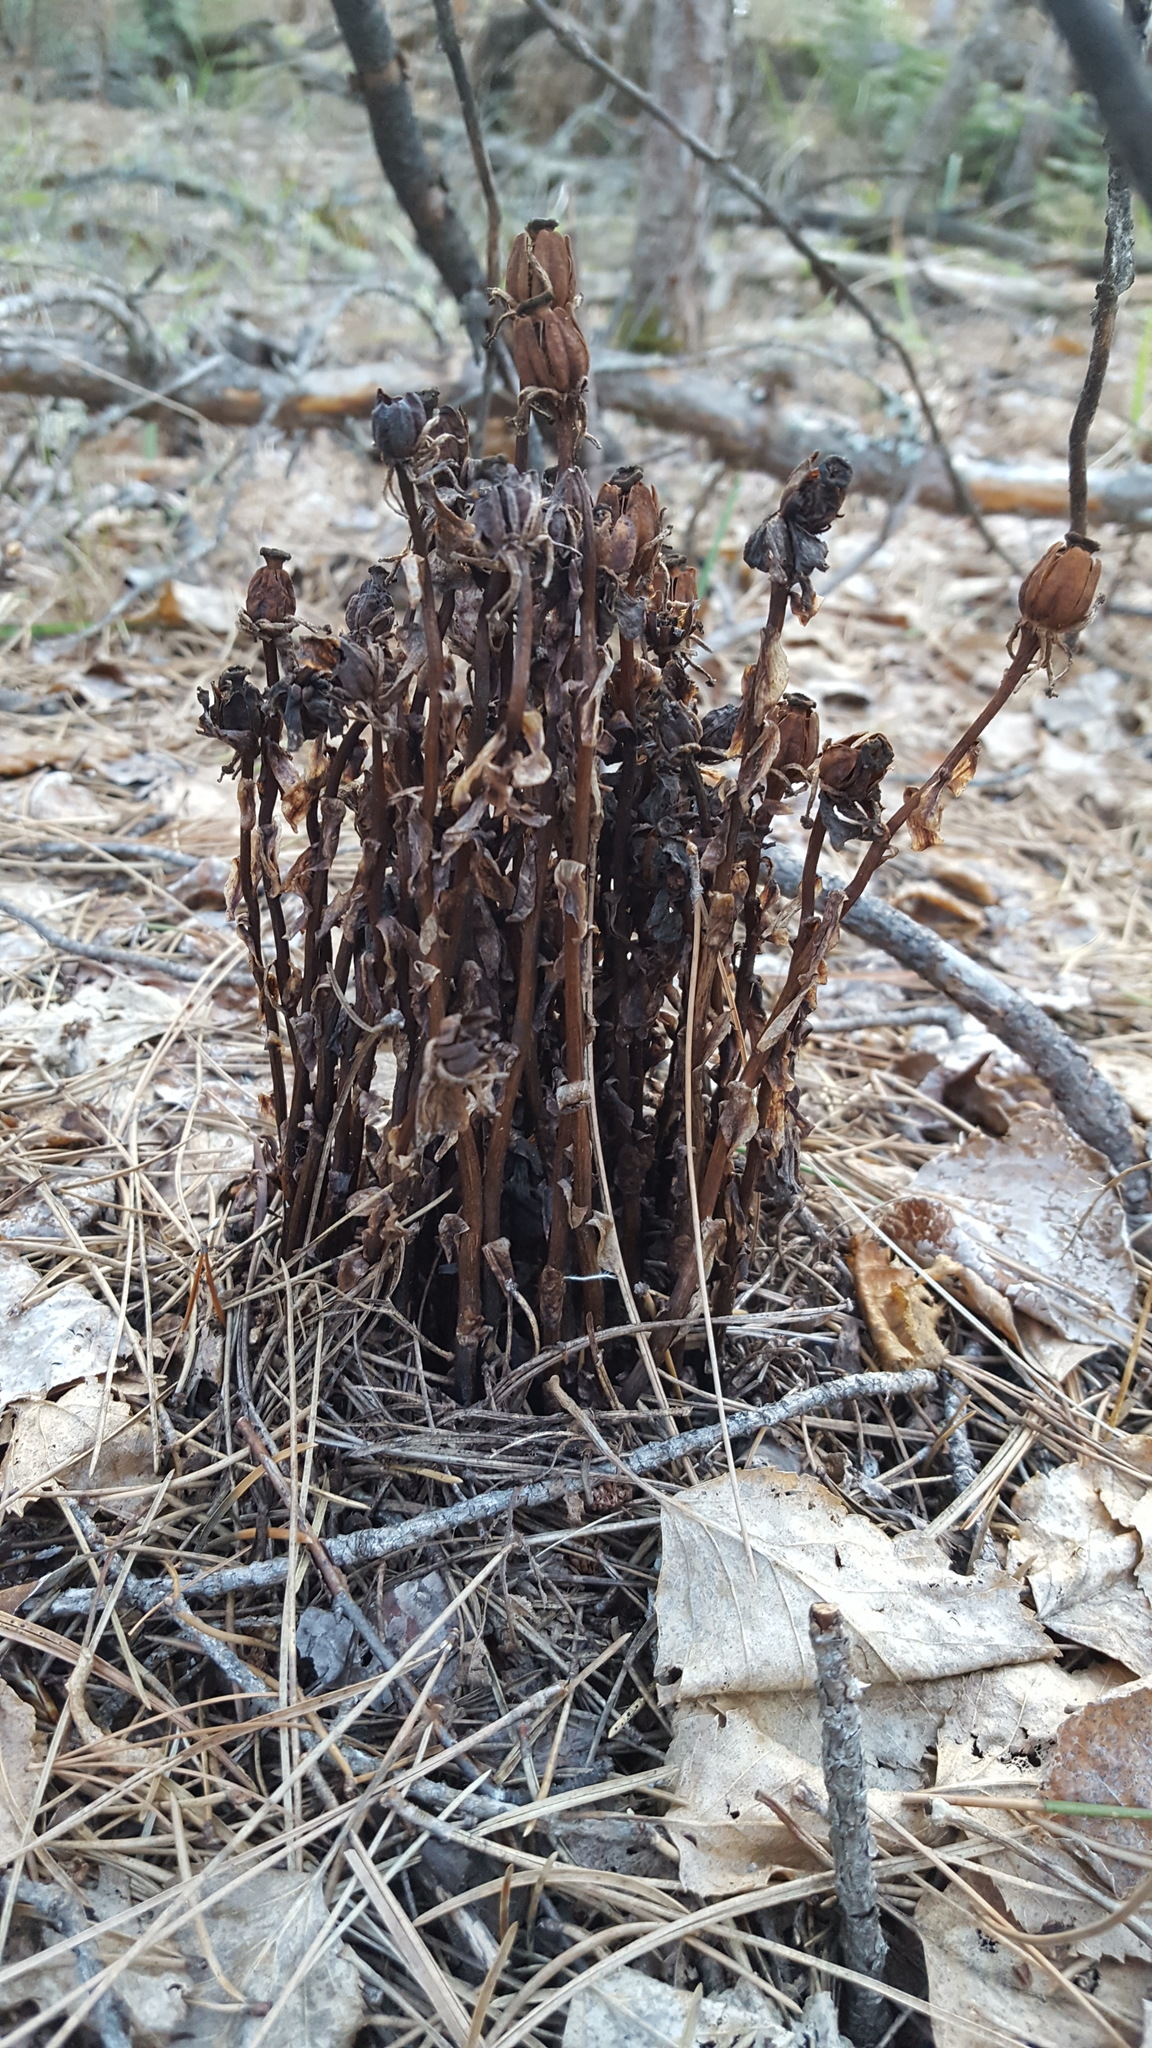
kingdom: Plantae
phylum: Tracheophyta
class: Magnoliopsida
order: Ericales
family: Ericaceae
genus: Monotropa
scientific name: Monotropa uniflora
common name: Convulsion root
